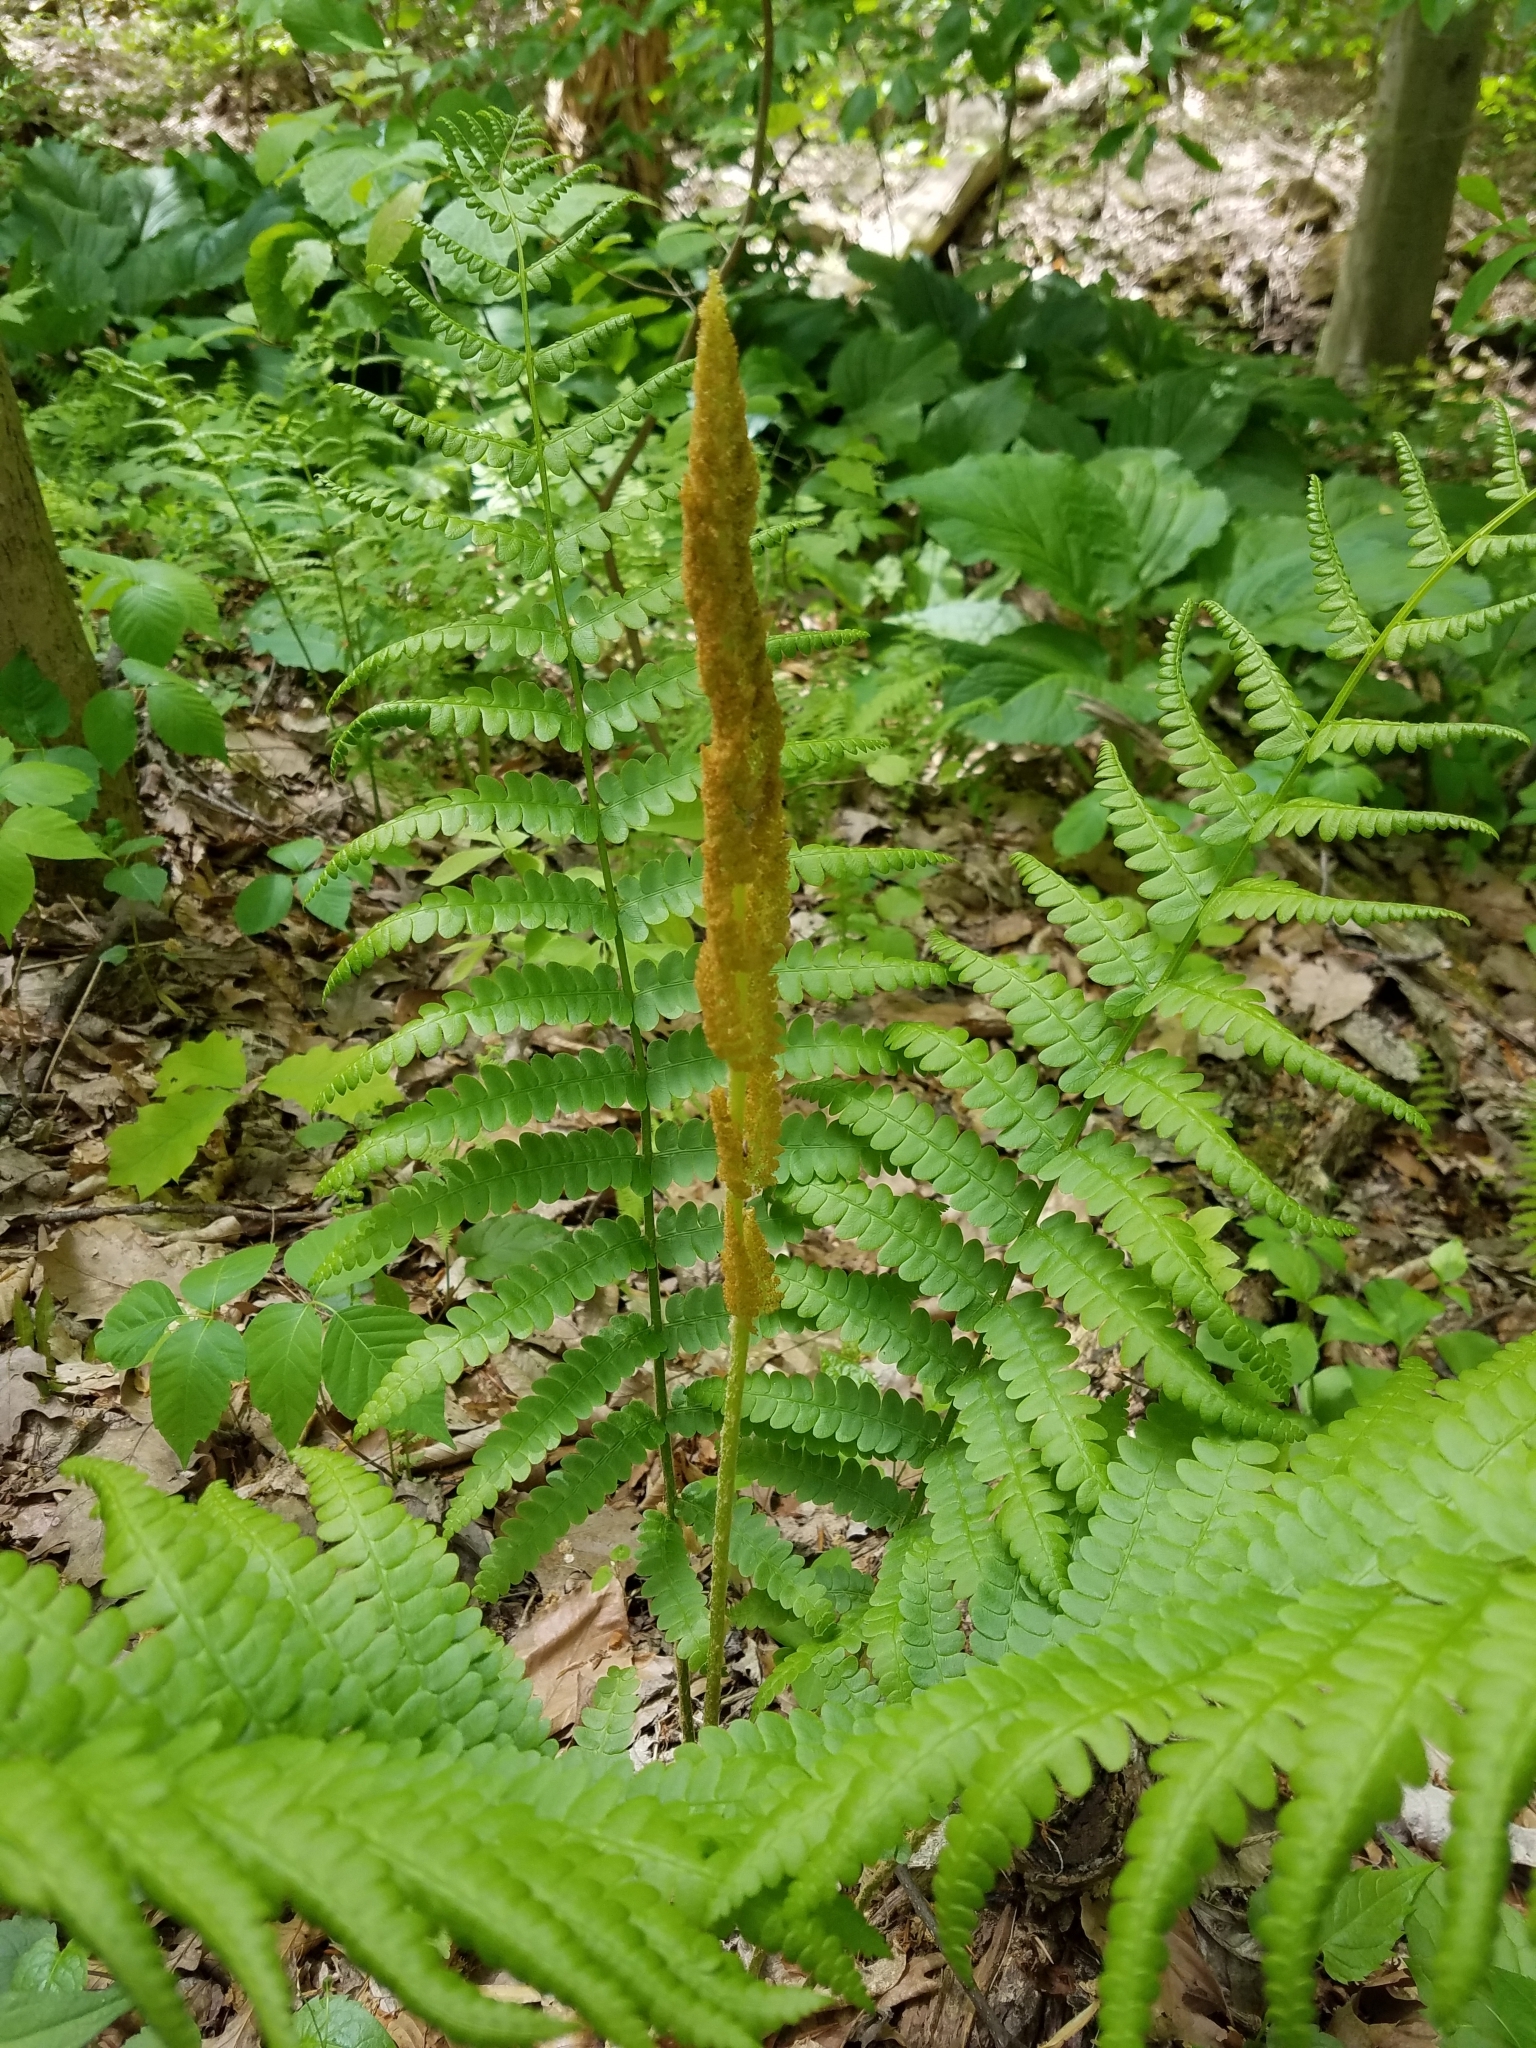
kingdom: Plantae
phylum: Tracheophyta
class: Polypodiopsida
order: Osmundales
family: Osmundaceae
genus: Osmundastrum
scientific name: Osmundastrum cinnamomeum
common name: Cinnamon fern
